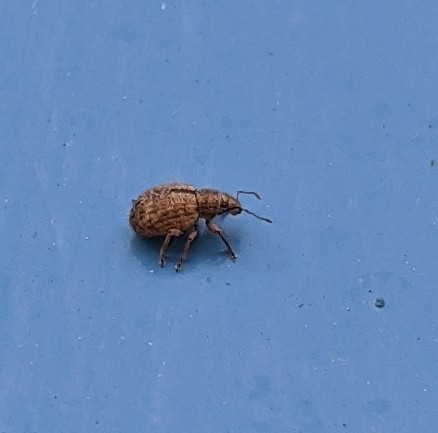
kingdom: Animalia
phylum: Arthropoda
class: Insecta
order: Coleoptera
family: Curculionidae
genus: Strophosoma
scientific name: Strophosoma melanogrammum
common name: Weevil
